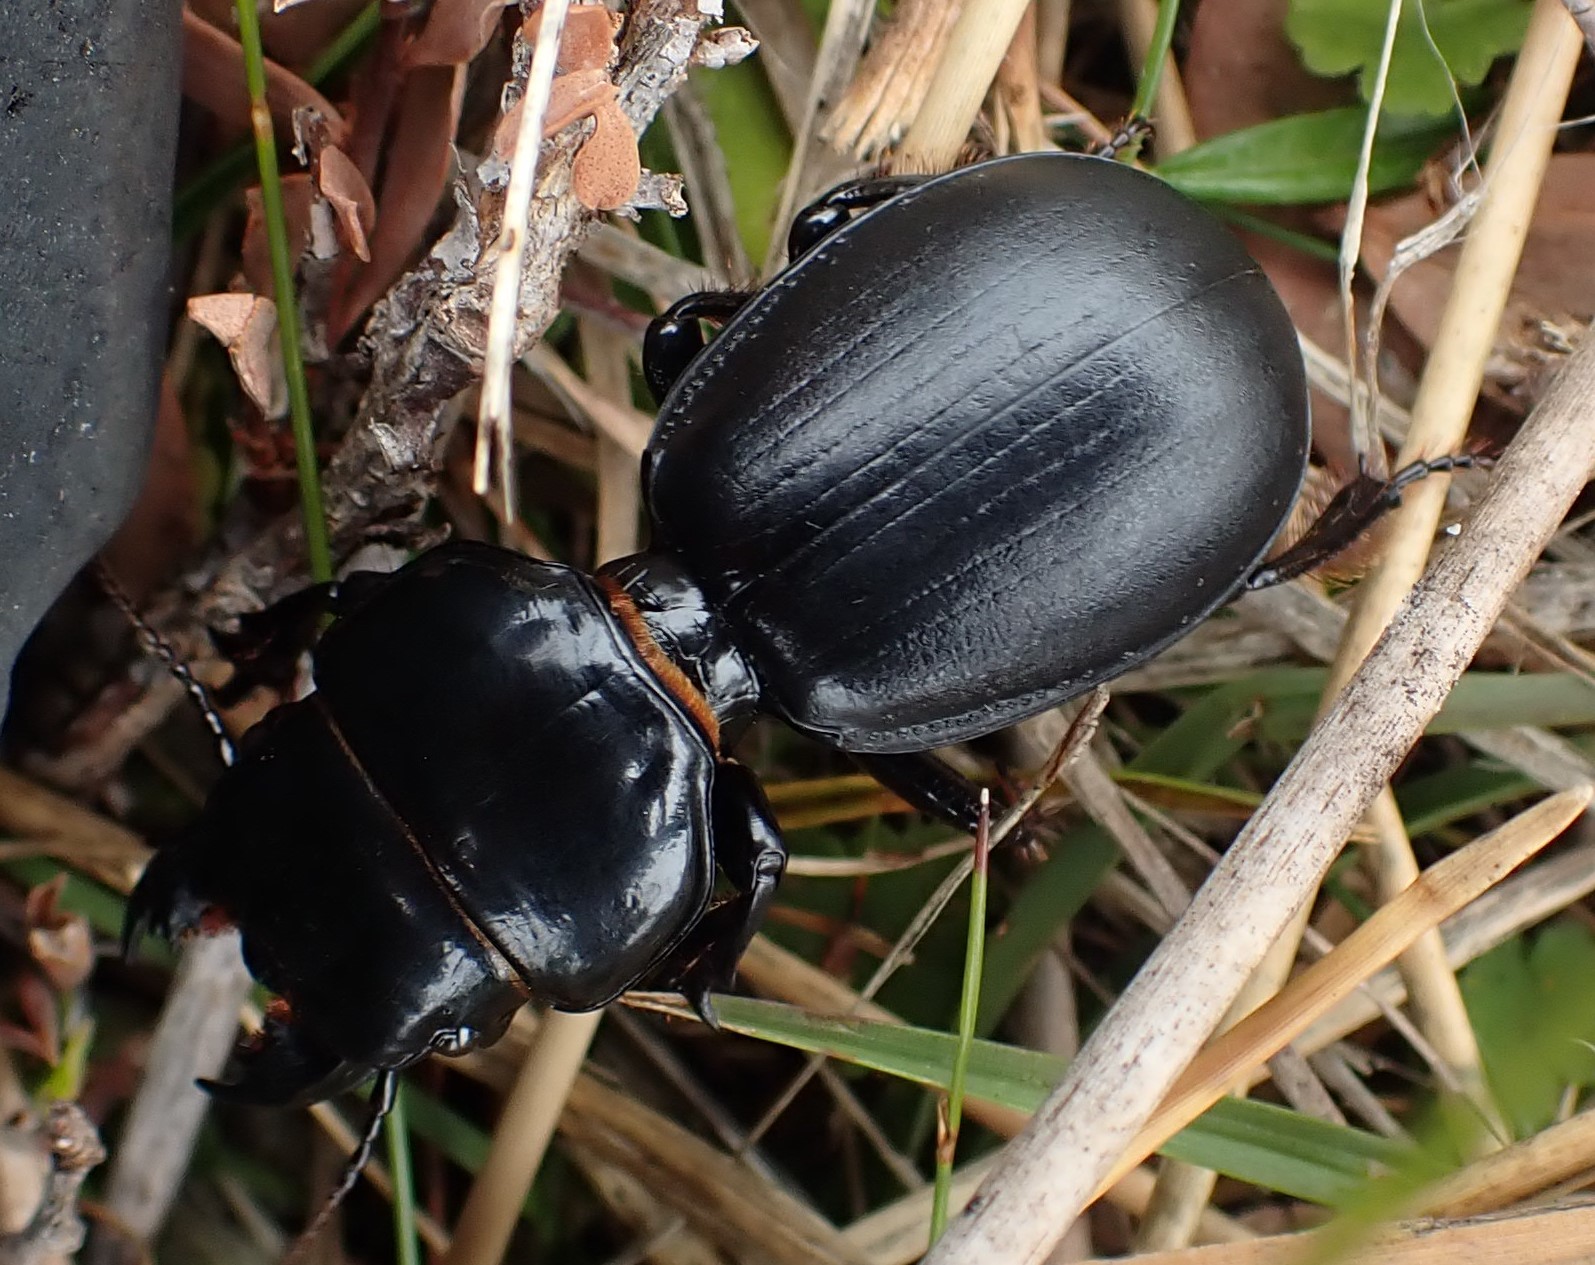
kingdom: Animalia
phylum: Arthropoda
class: Insecta
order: Coleoptera
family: Carabidae
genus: Scaraphites
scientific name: Scaraphites rotundipennis
